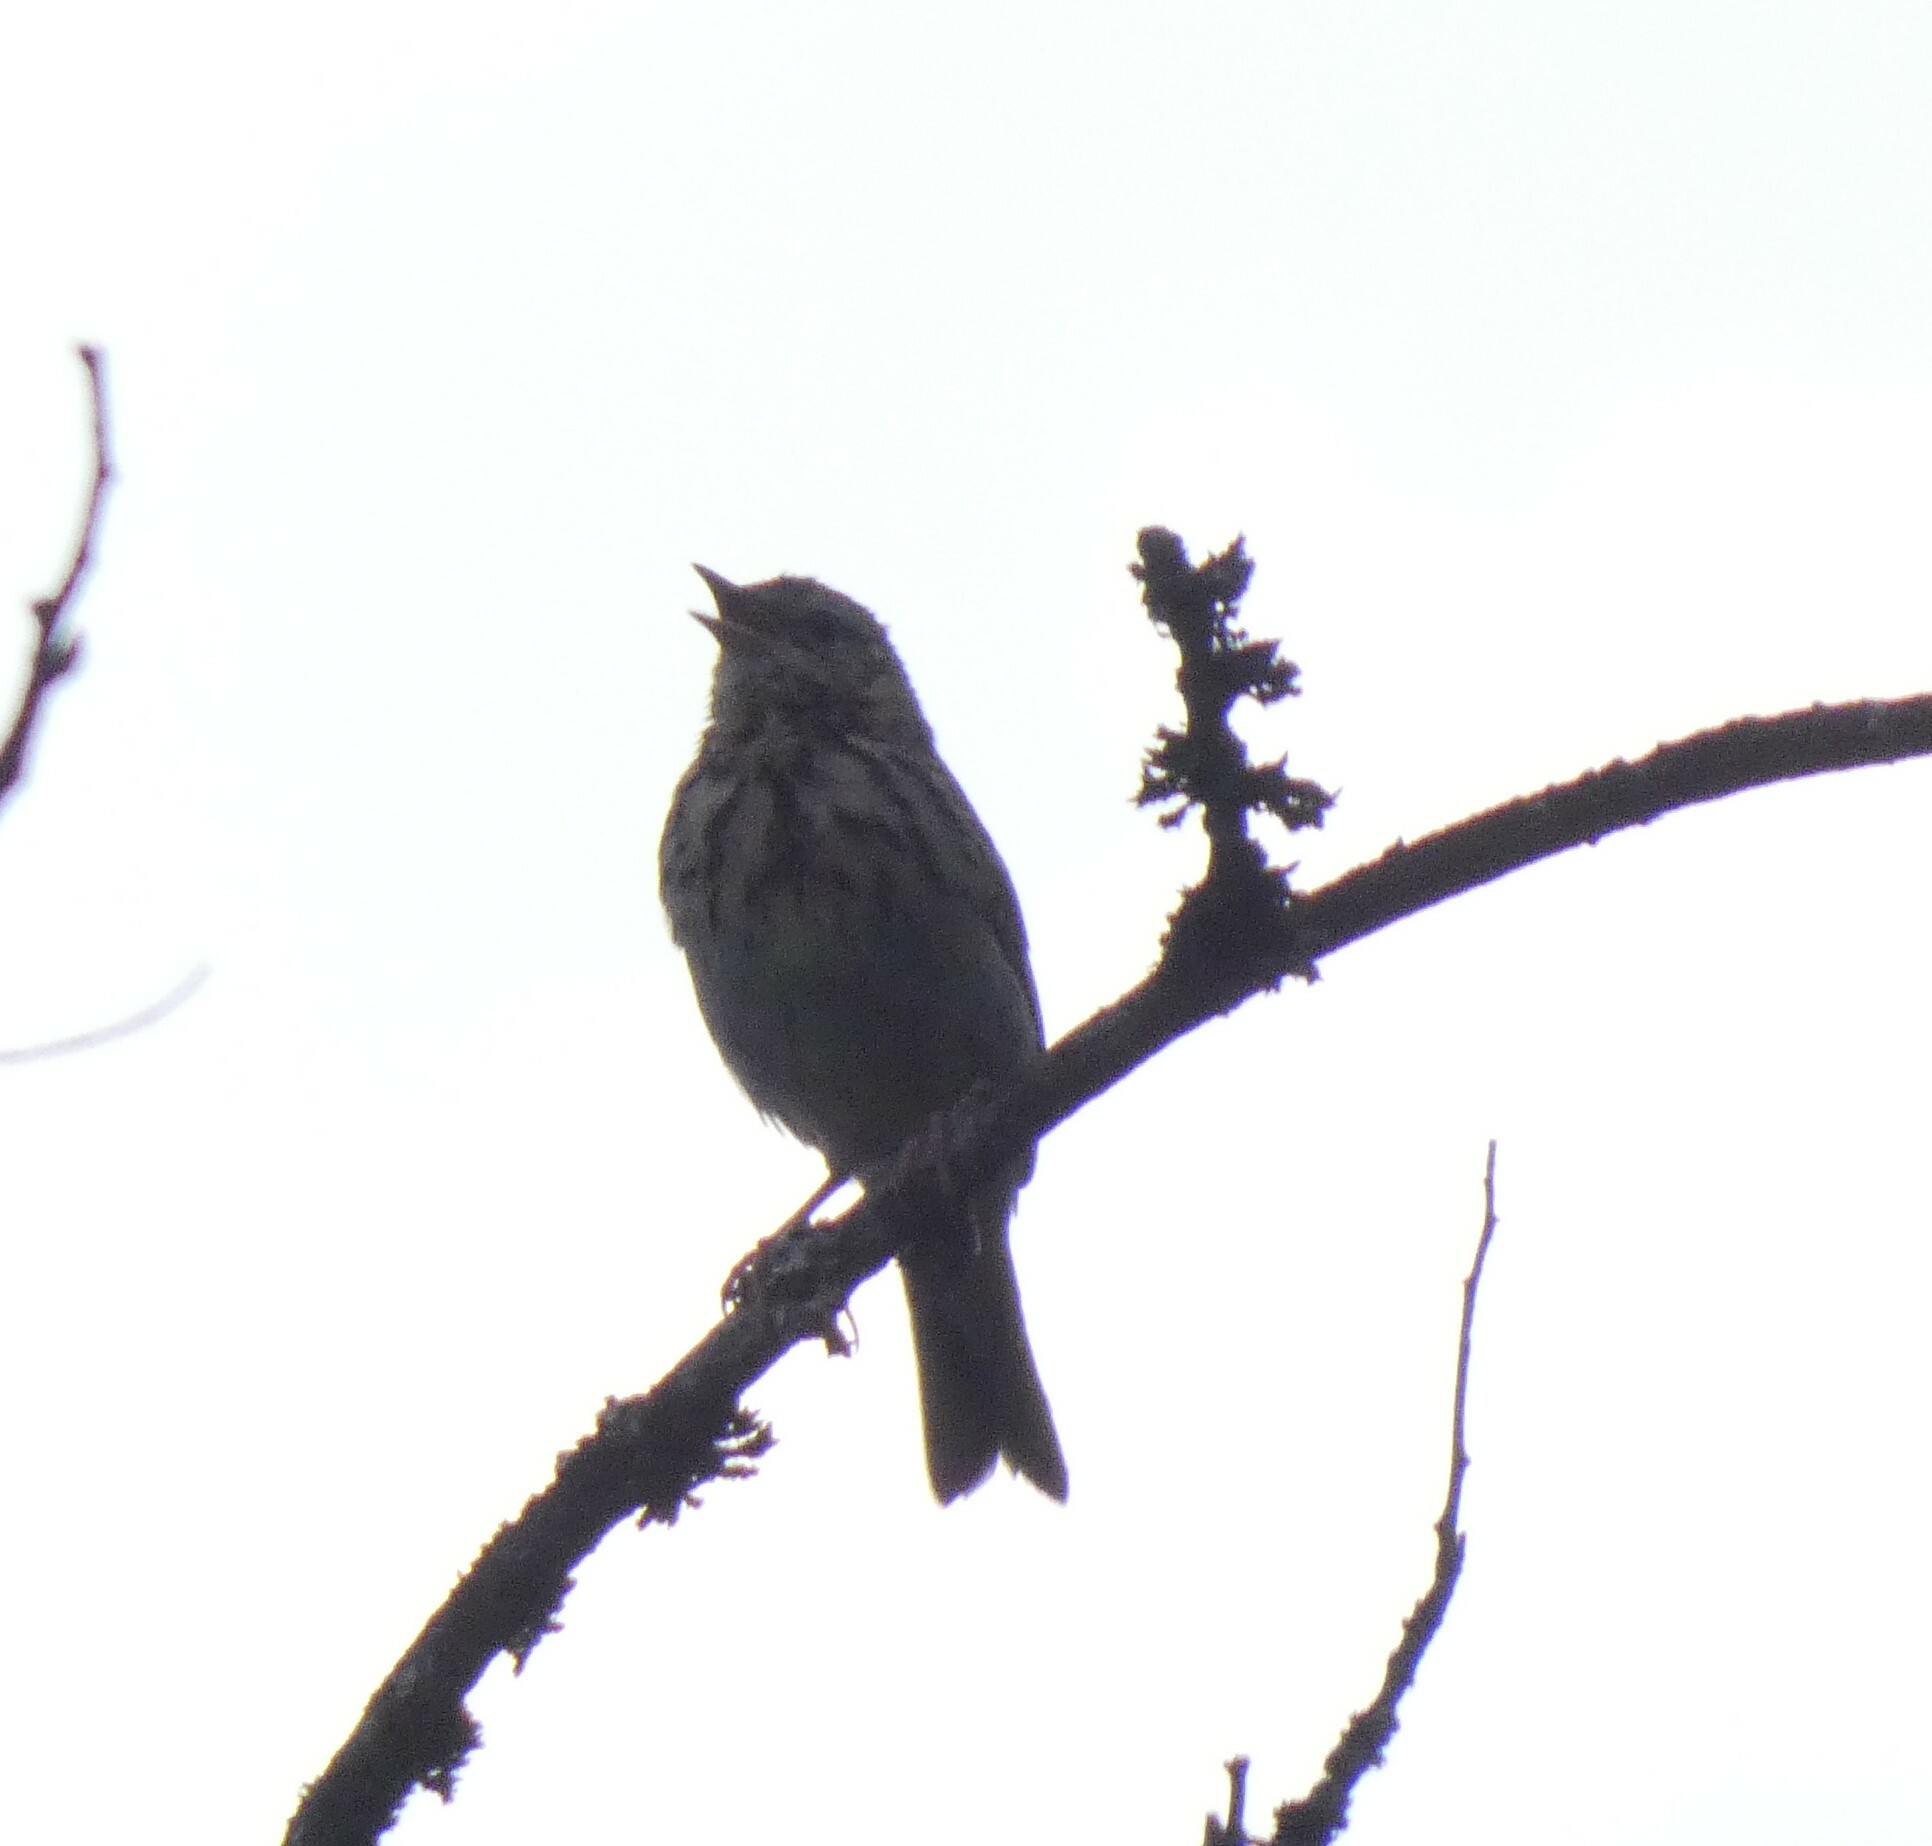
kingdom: Animalia
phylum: Chordata
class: Aves
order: Passeriformes
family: Motacillidae
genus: Anthus
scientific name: Anthus trivialis
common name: Tree pipit
